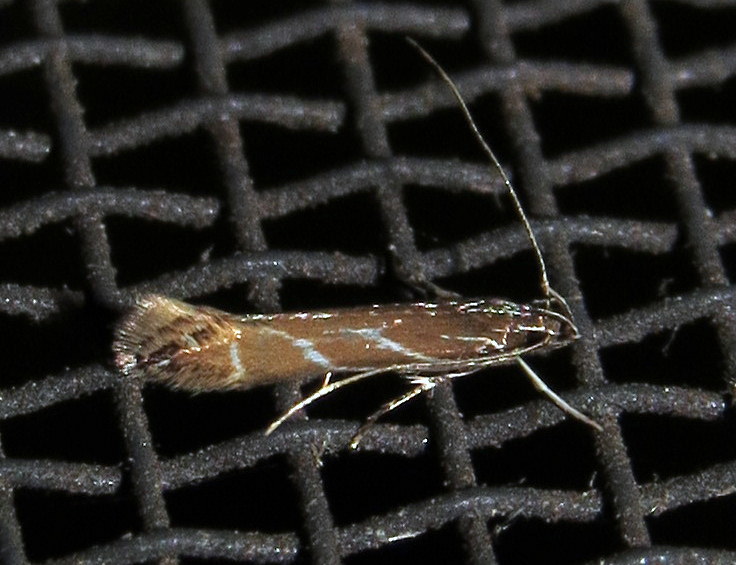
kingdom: Animalia
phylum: Arthropoda
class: Insecta
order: Lepidoptera
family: Cosmopterigidae
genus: Tanygona
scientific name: Tanygona lignicolorella
